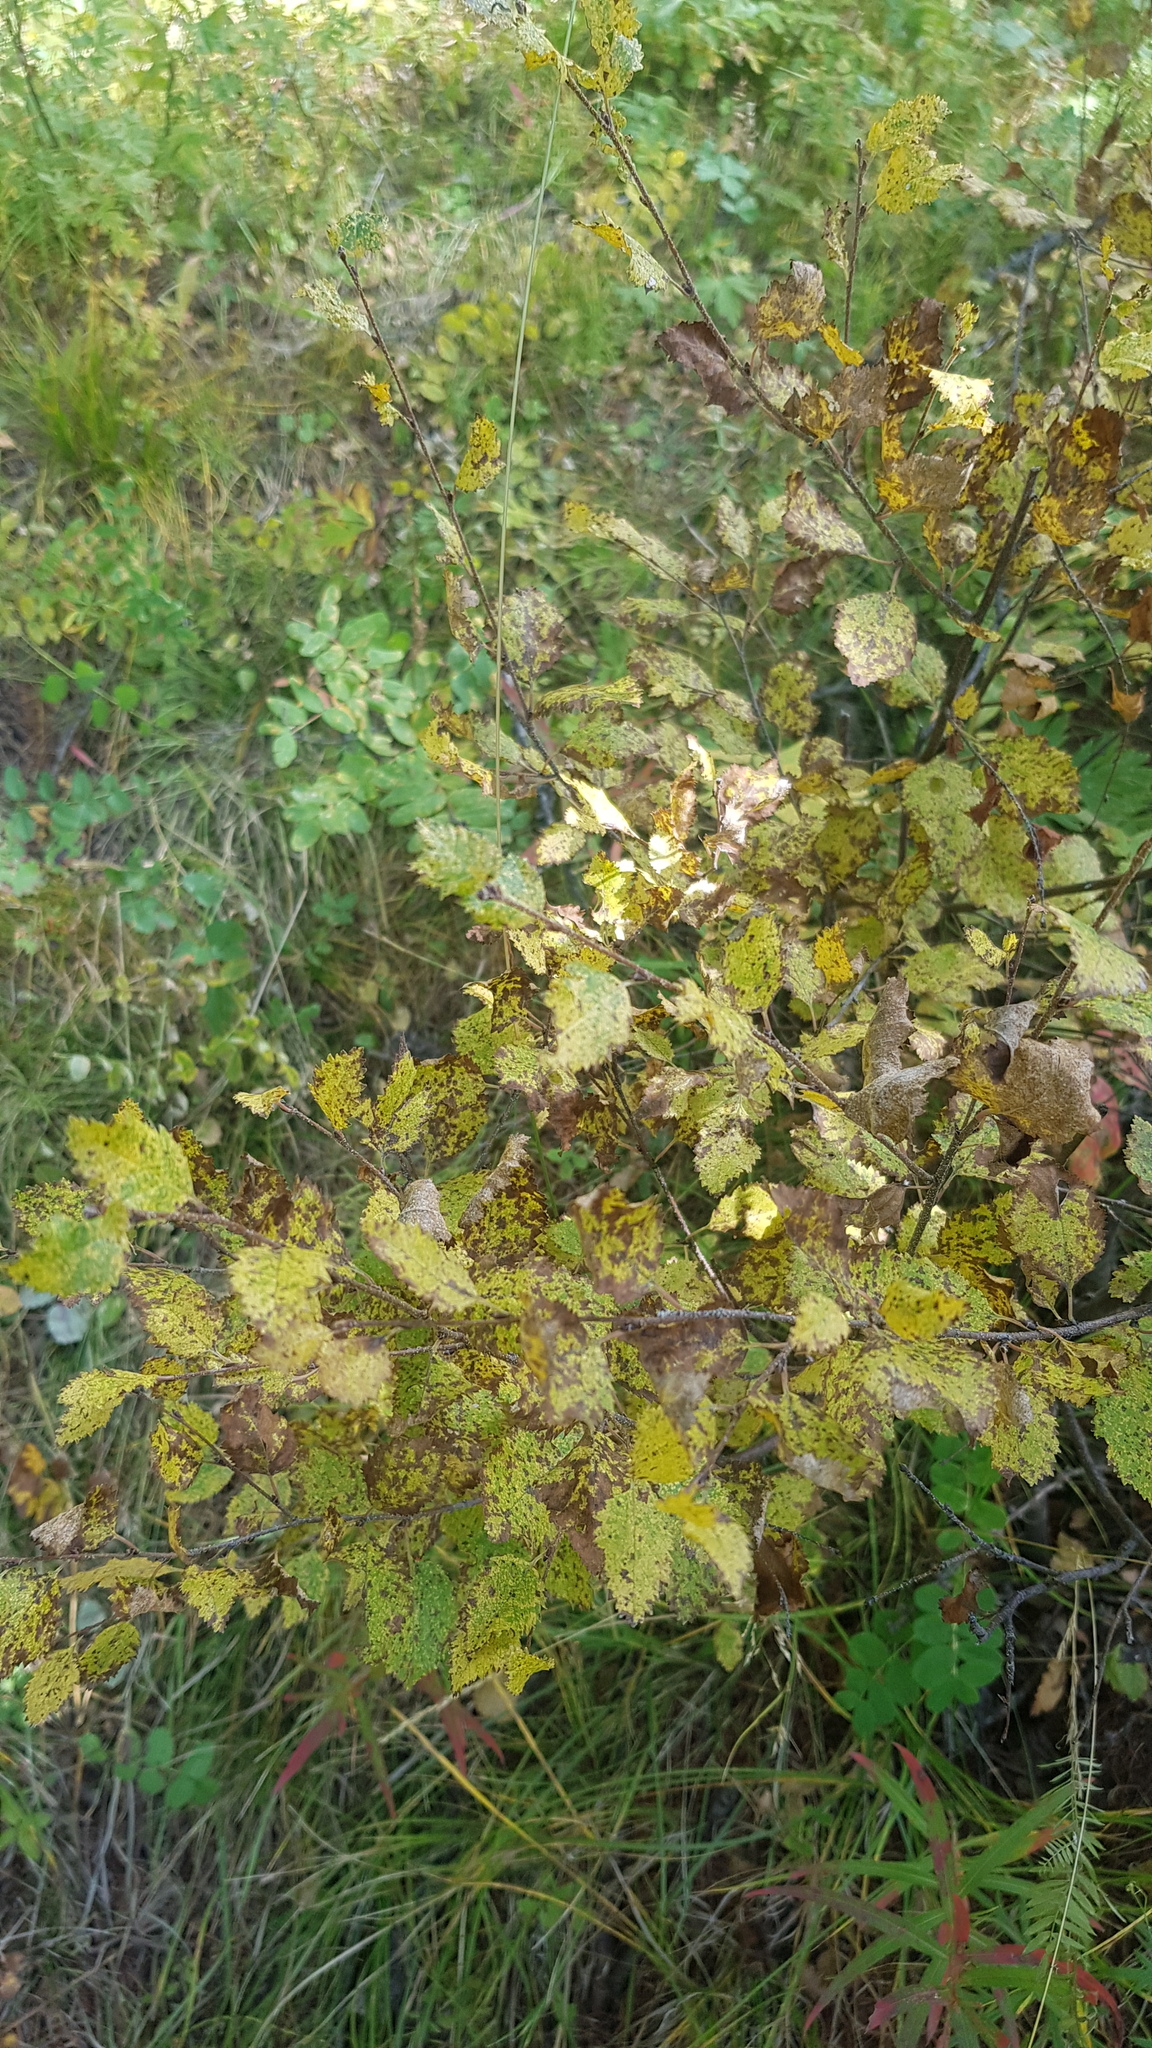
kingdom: Plantae
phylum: Tracheophyta
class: Magnoliopsida
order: Fagales
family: Betulaceae
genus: Betula
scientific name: Betula fruticosa
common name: Japanese bog birch
